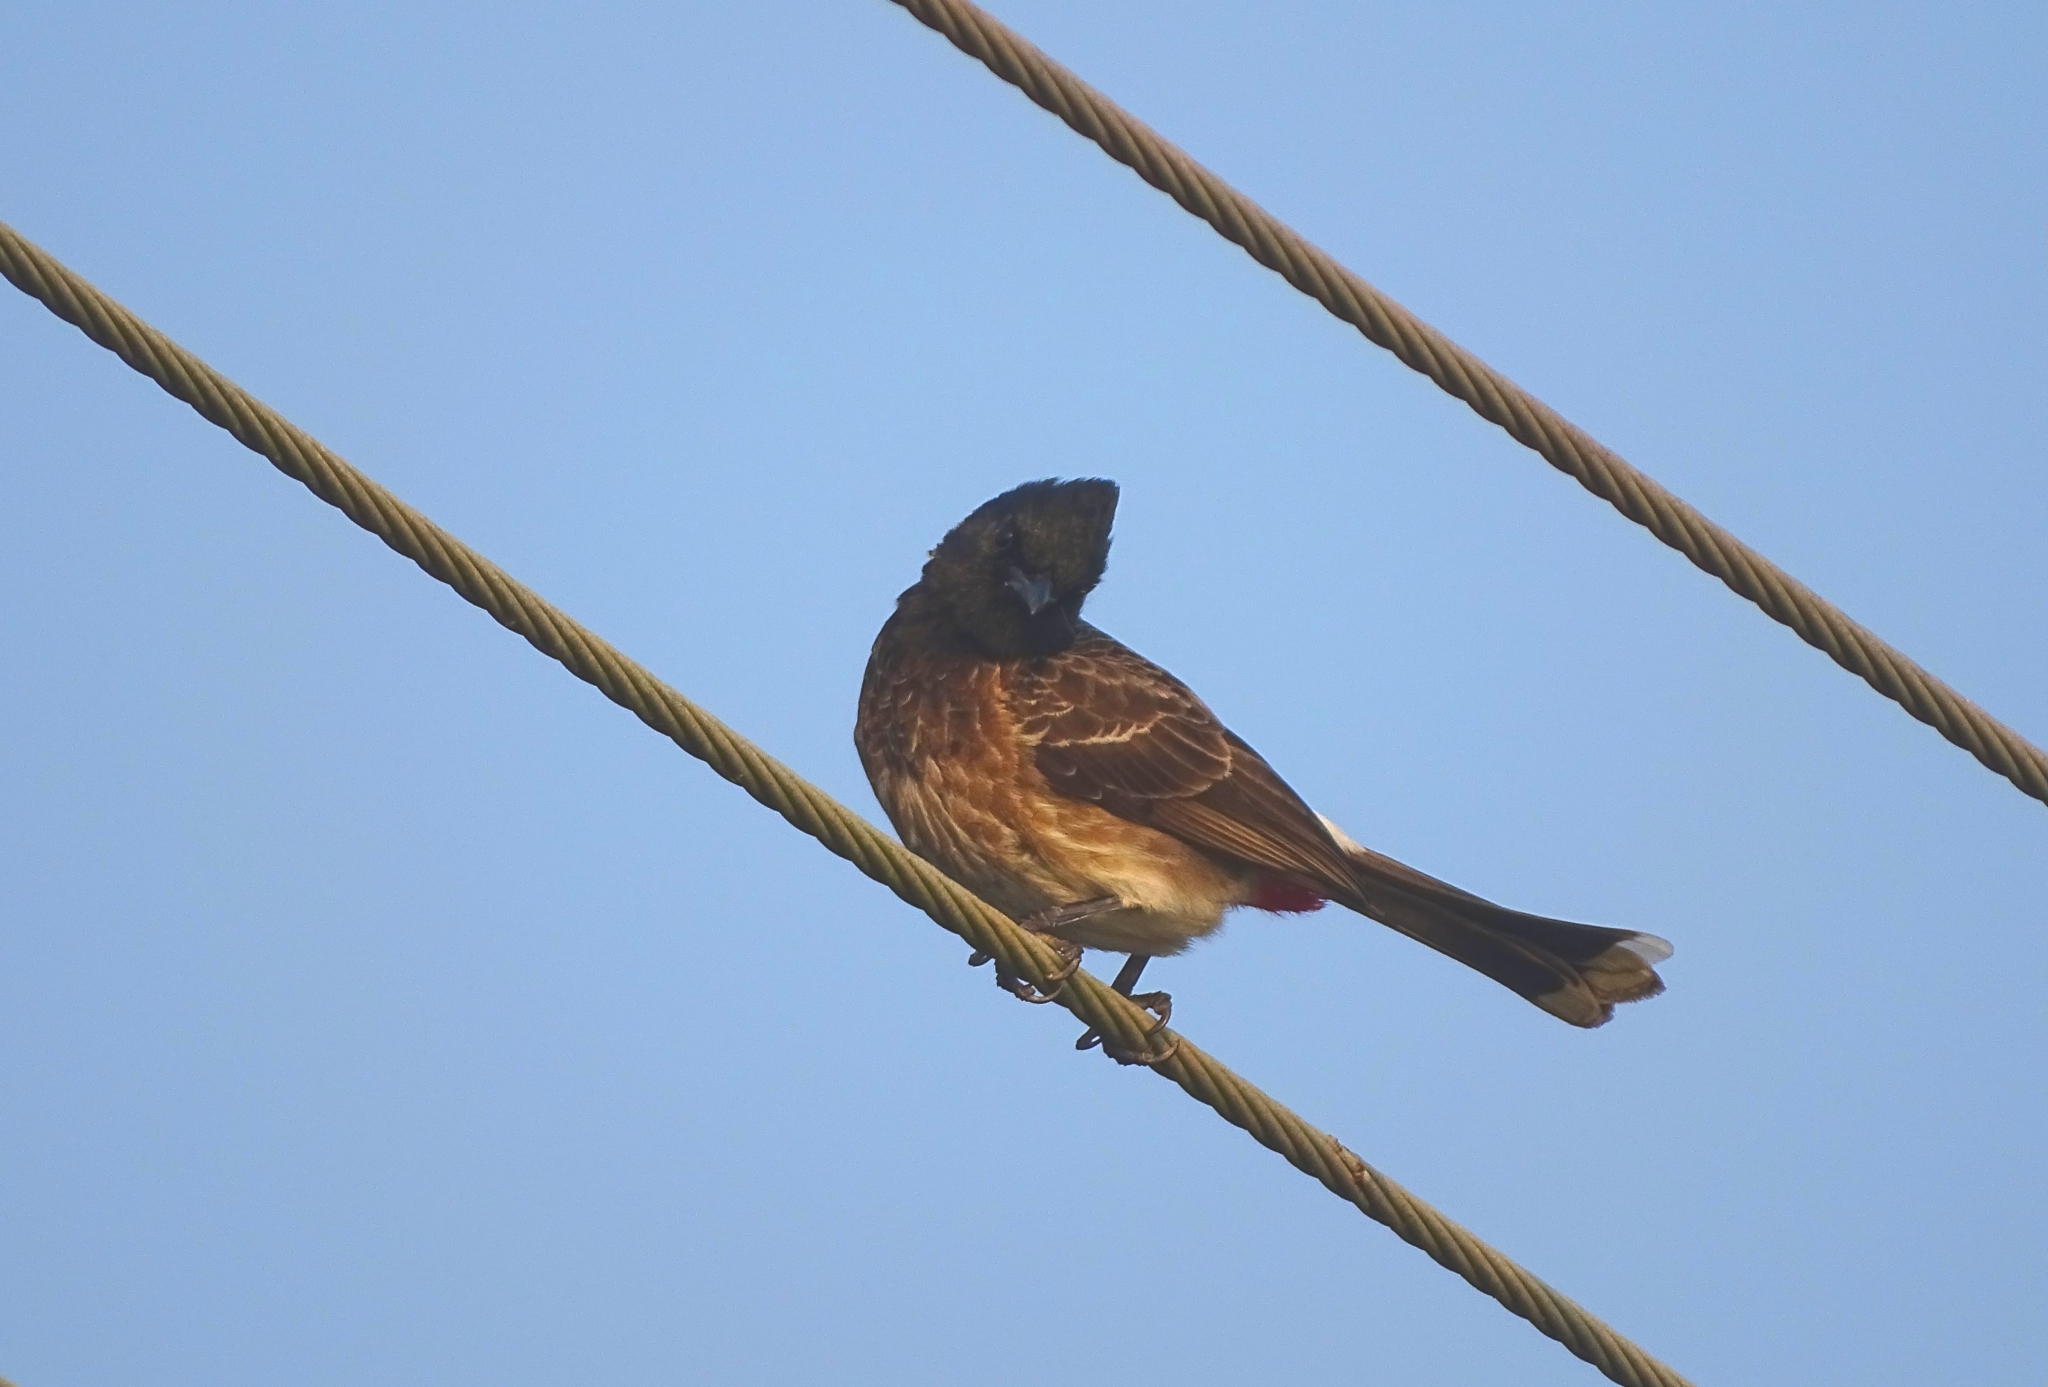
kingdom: Animalia
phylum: Chordata
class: Aves
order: Passeriformes
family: Pycnonotidae
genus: Pycnonotus
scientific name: Pycnonotus cafer
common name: Red-vented bulbul
